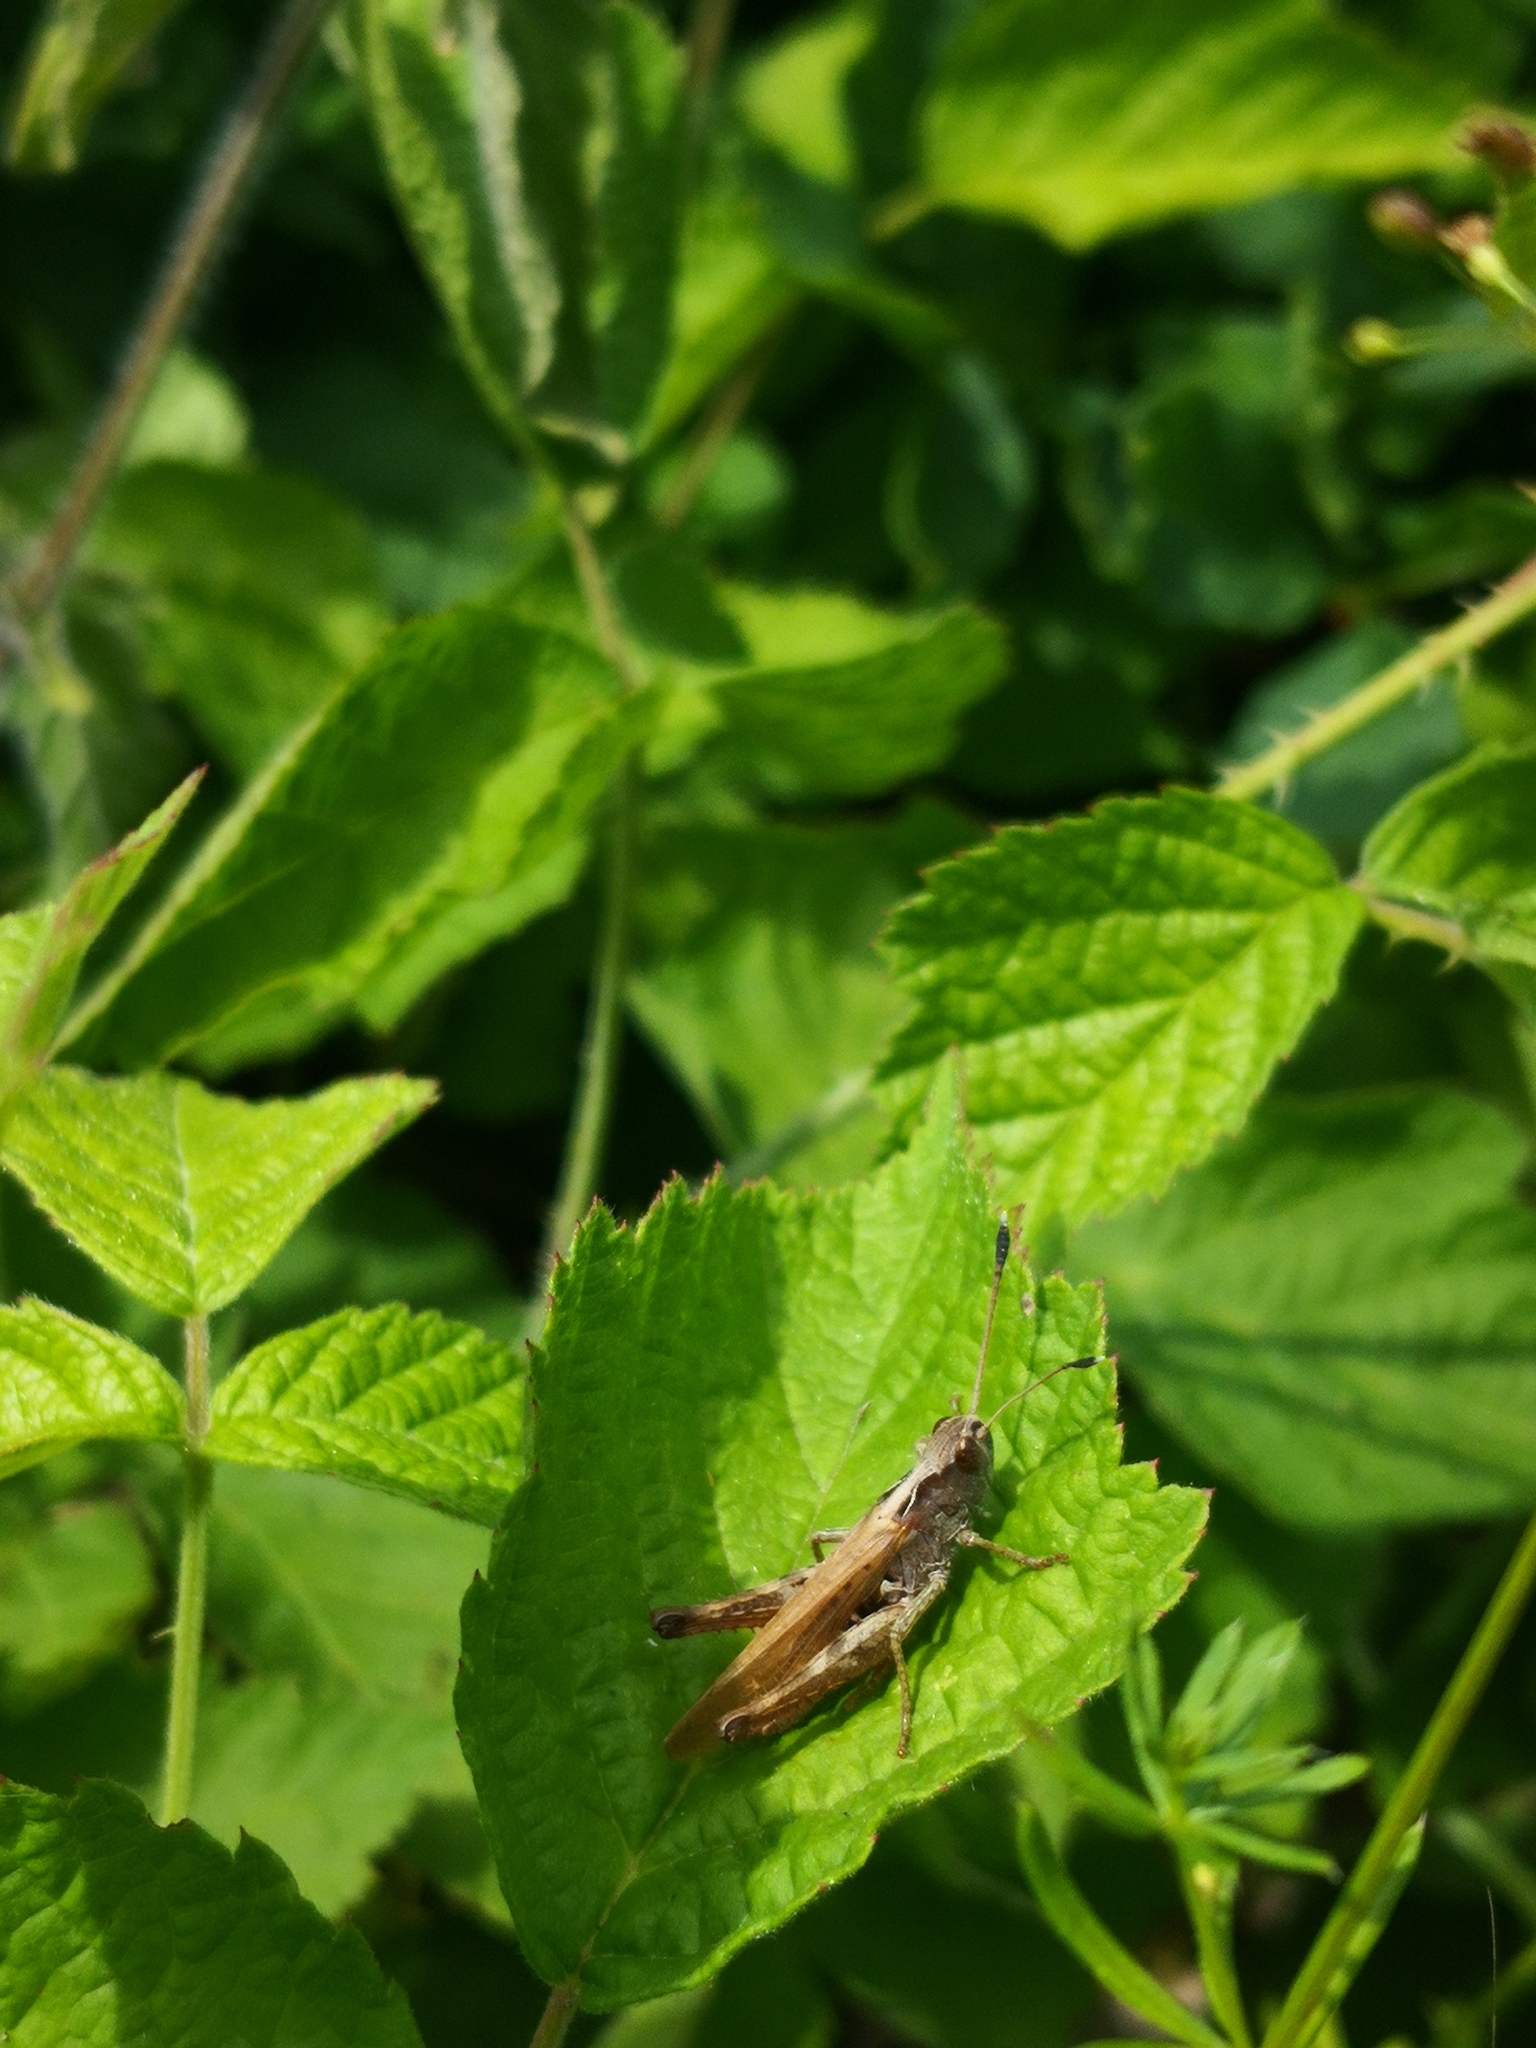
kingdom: Animalia
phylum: Arthropoda
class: Insecta
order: Orthoptera
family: Acrididae
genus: Gomphocerippus
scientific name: Gomphocerippus rufus
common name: Rufous grasshopper
